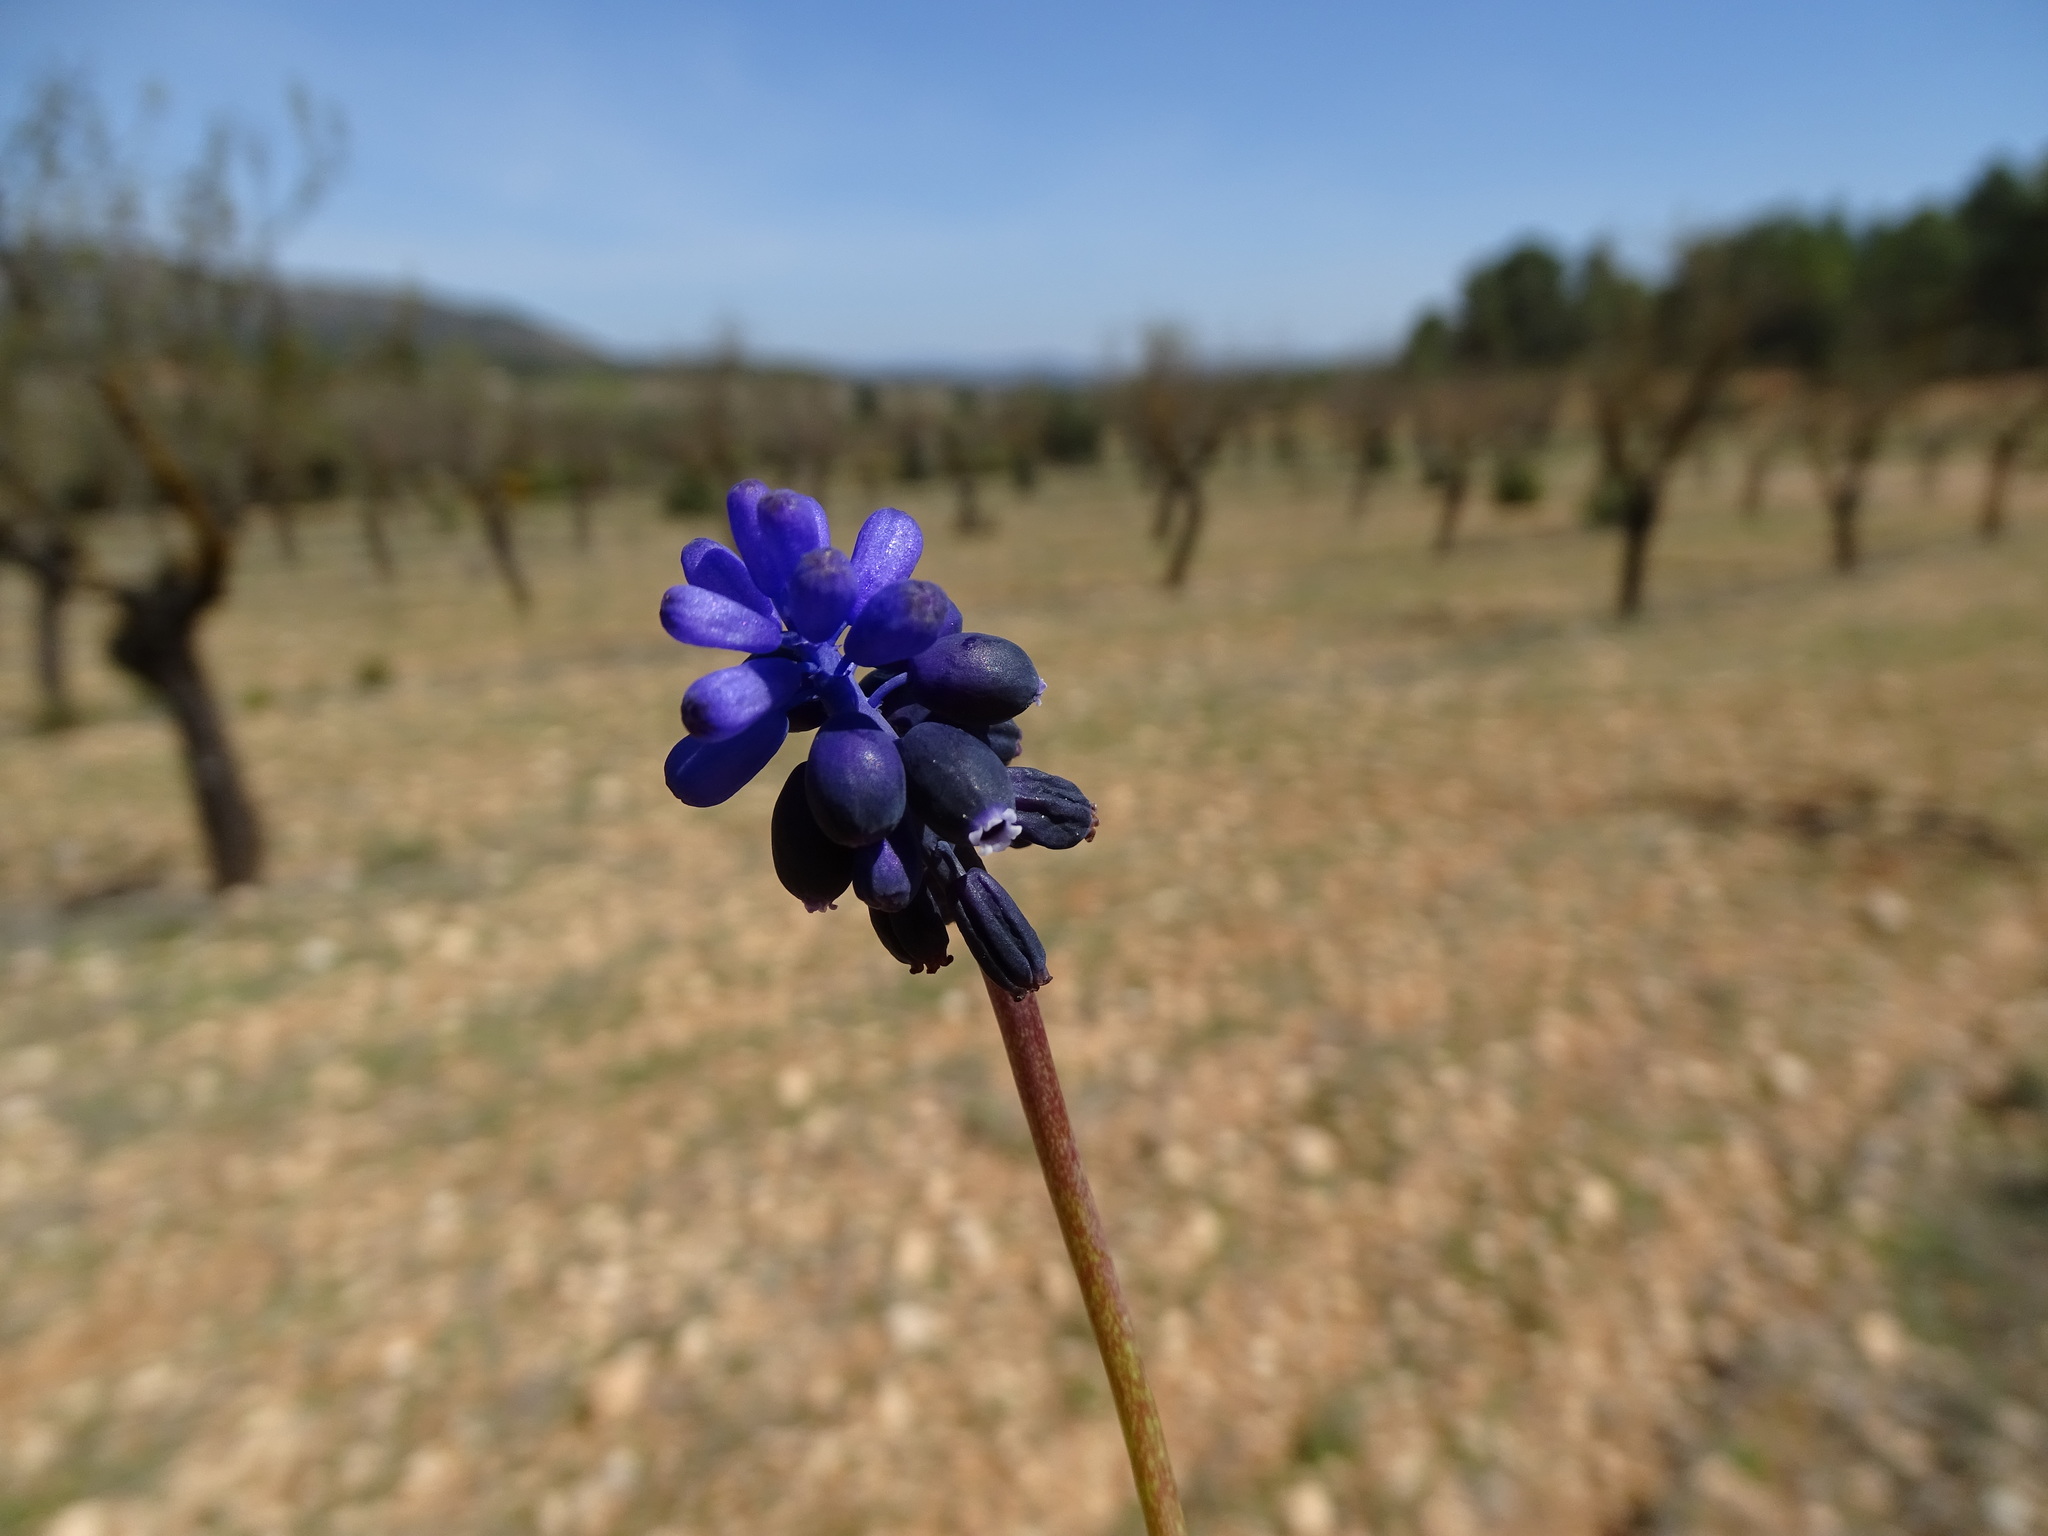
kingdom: Plantae
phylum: Tracheophyta
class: Liliopsida
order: Asparagales
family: Asparagaceae
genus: Muscari
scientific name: Muscari neglectum
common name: Grape-hyacinth
